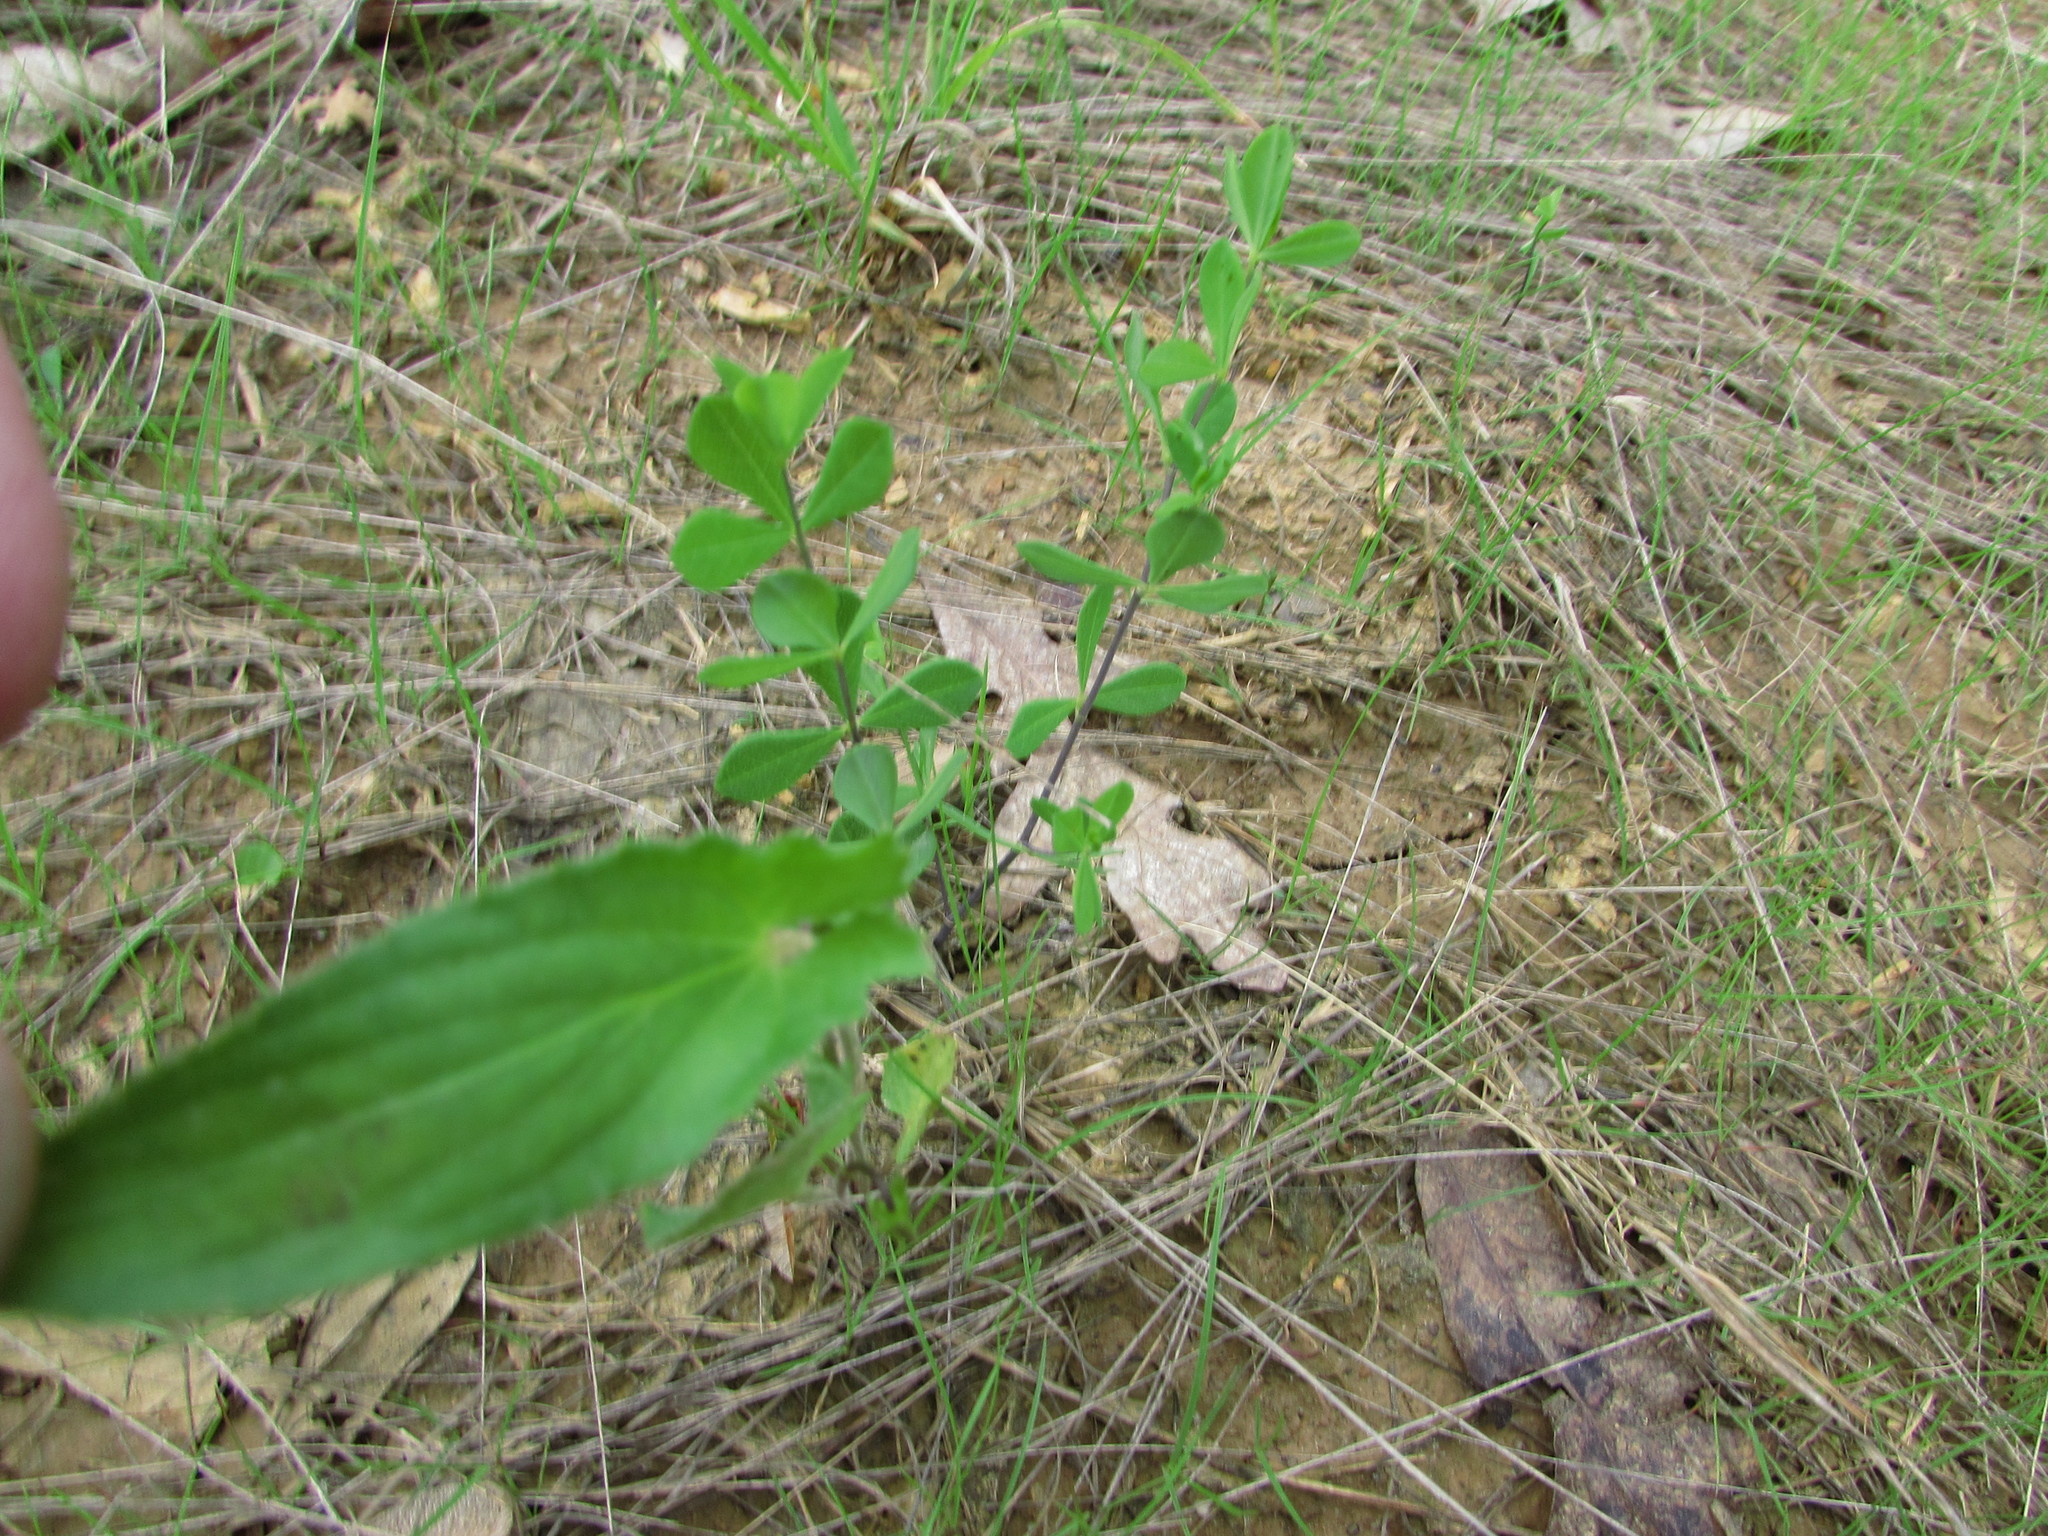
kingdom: Plantae
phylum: Tracheophyta
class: Magnoliopsida
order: Fabales
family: Fabaceae
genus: Baptisia
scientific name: Baptisia tinctoria
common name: Wild indigo
